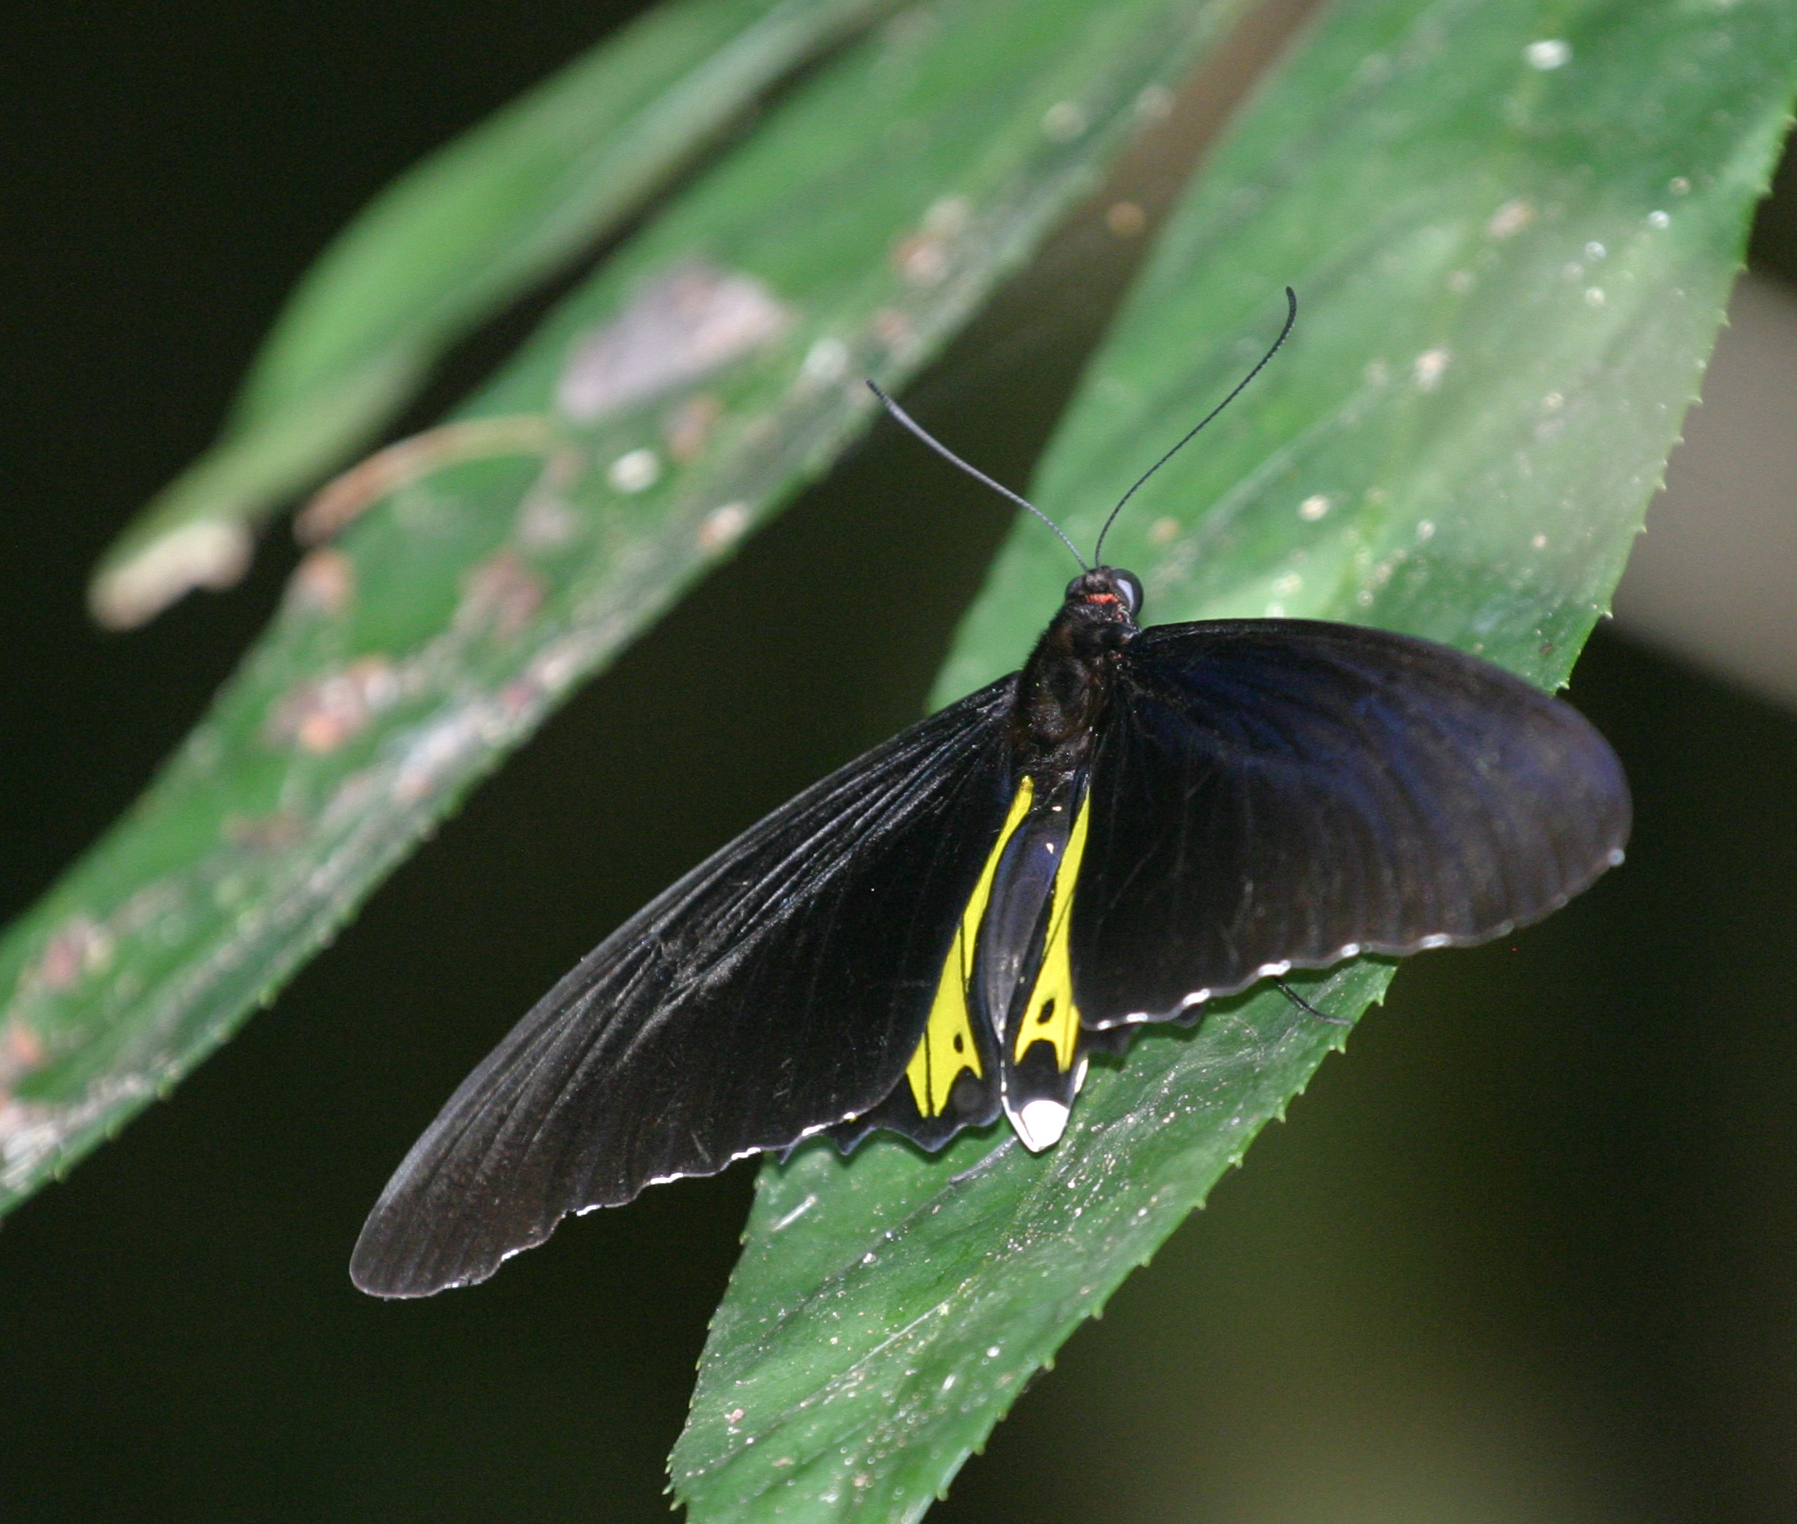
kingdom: Animalia
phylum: Arthropoda
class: Insecta
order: Lepidoptera
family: Papilionidae
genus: Troides
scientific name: Troides helena
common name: Common birdwing
